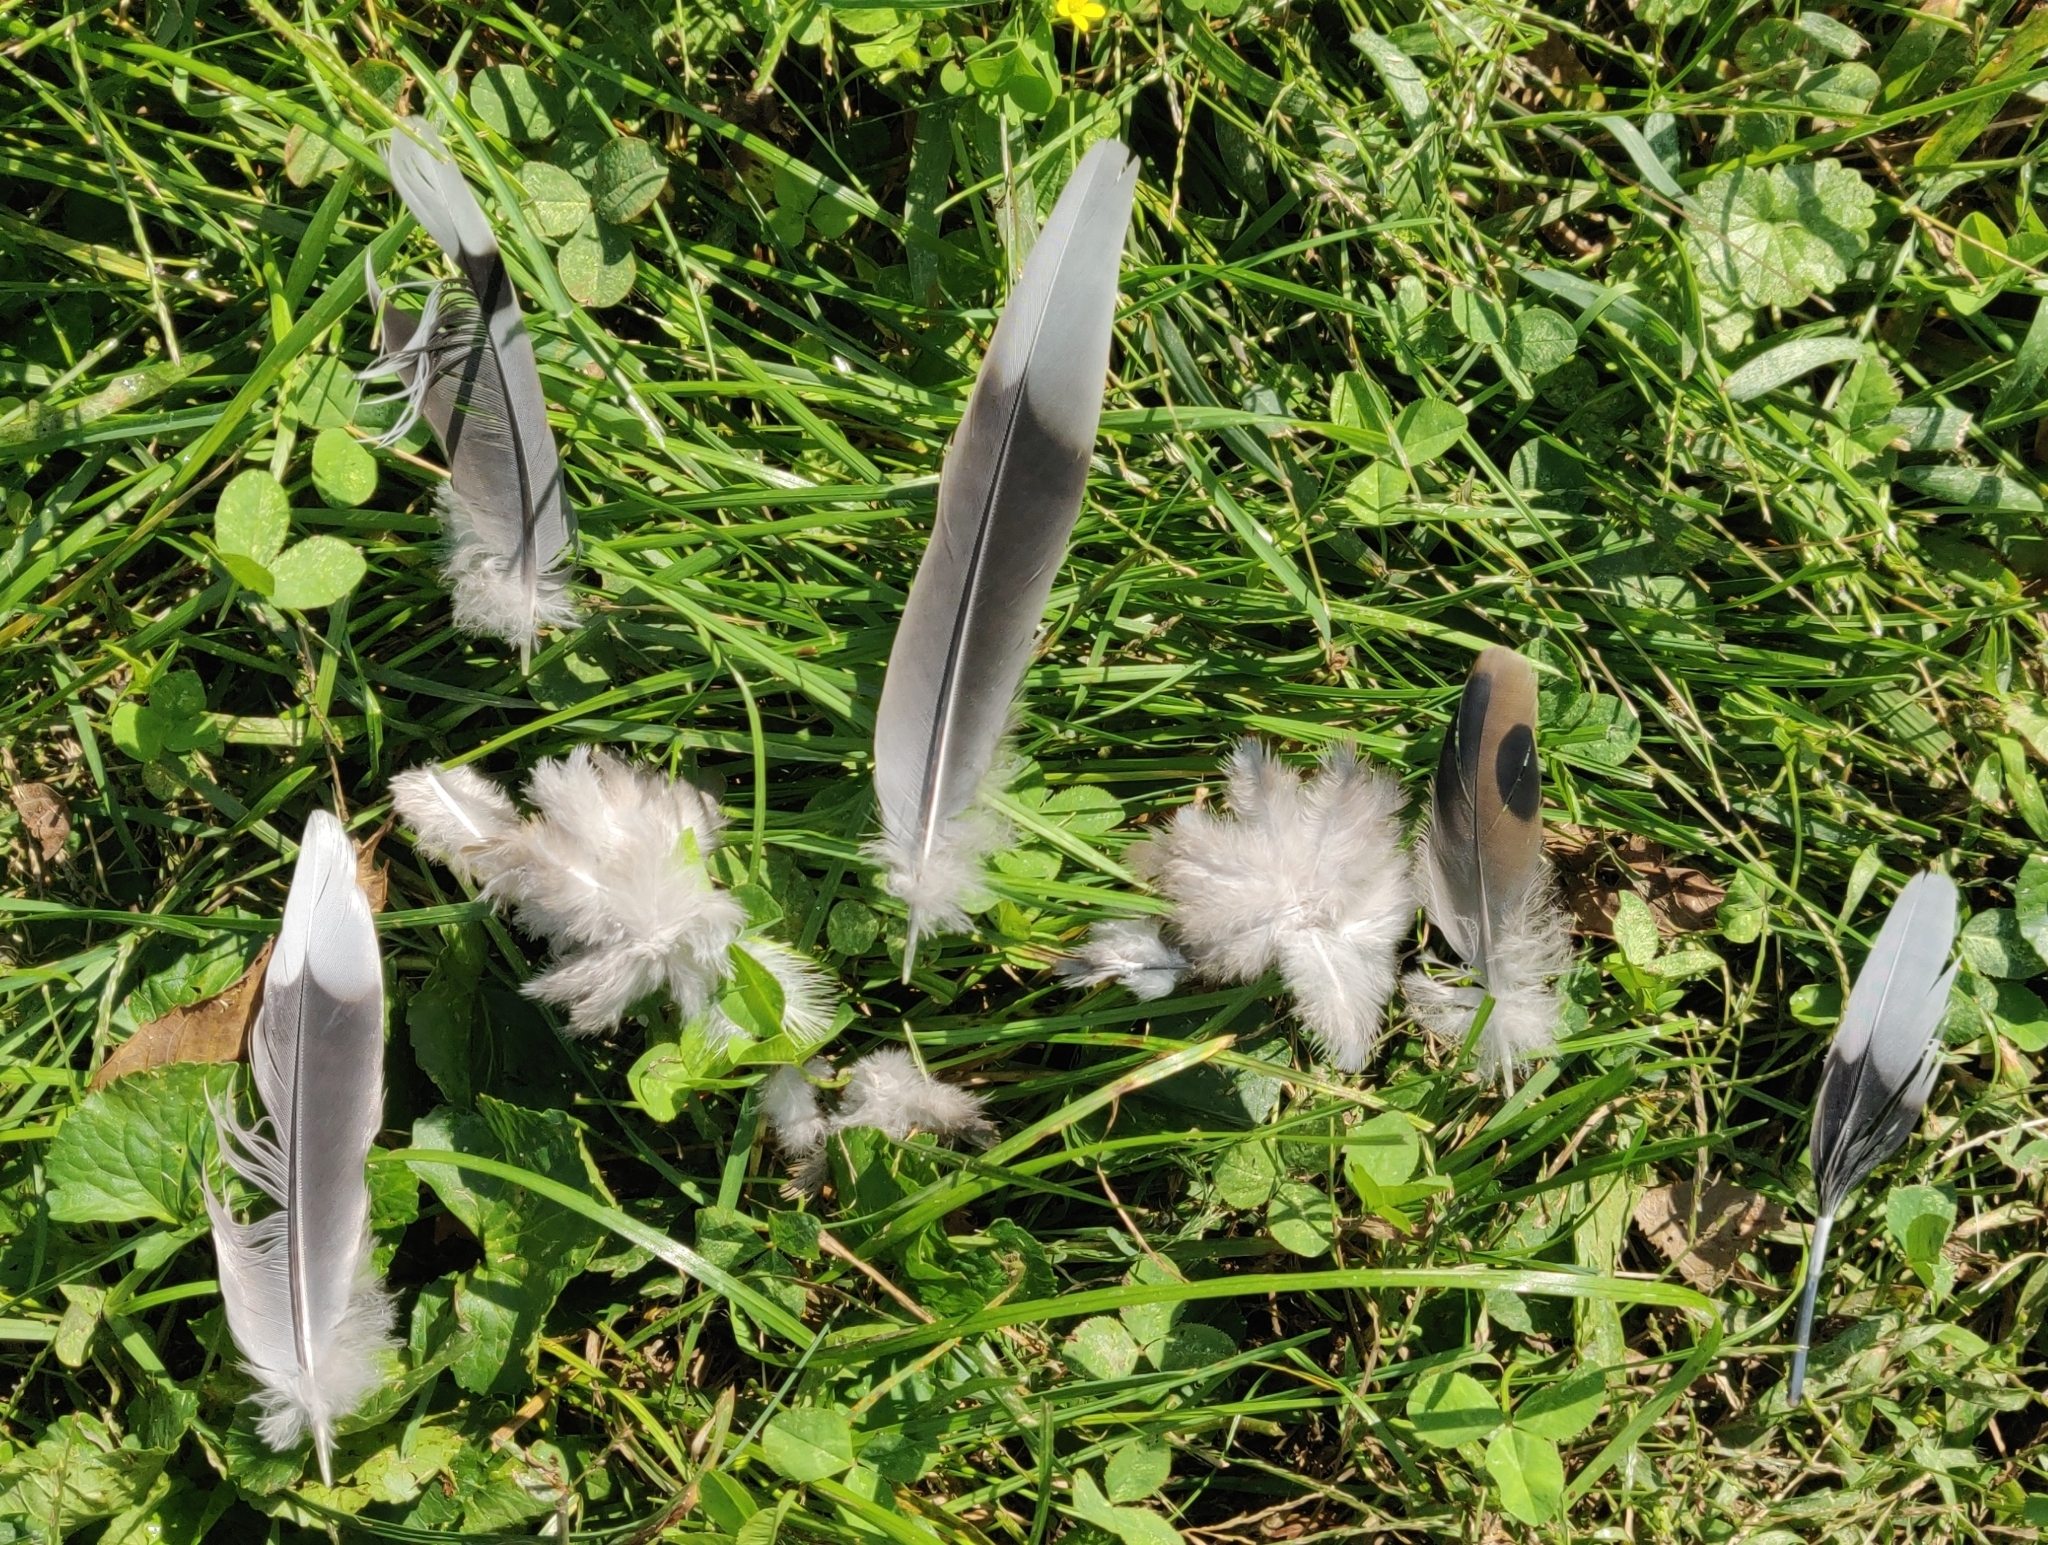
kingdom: Animalia
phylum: Chordata
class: Aves
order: Columbiformes
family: Columbidae
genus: Zenaida
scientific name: Zenaida macroura
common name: Mourning dove
